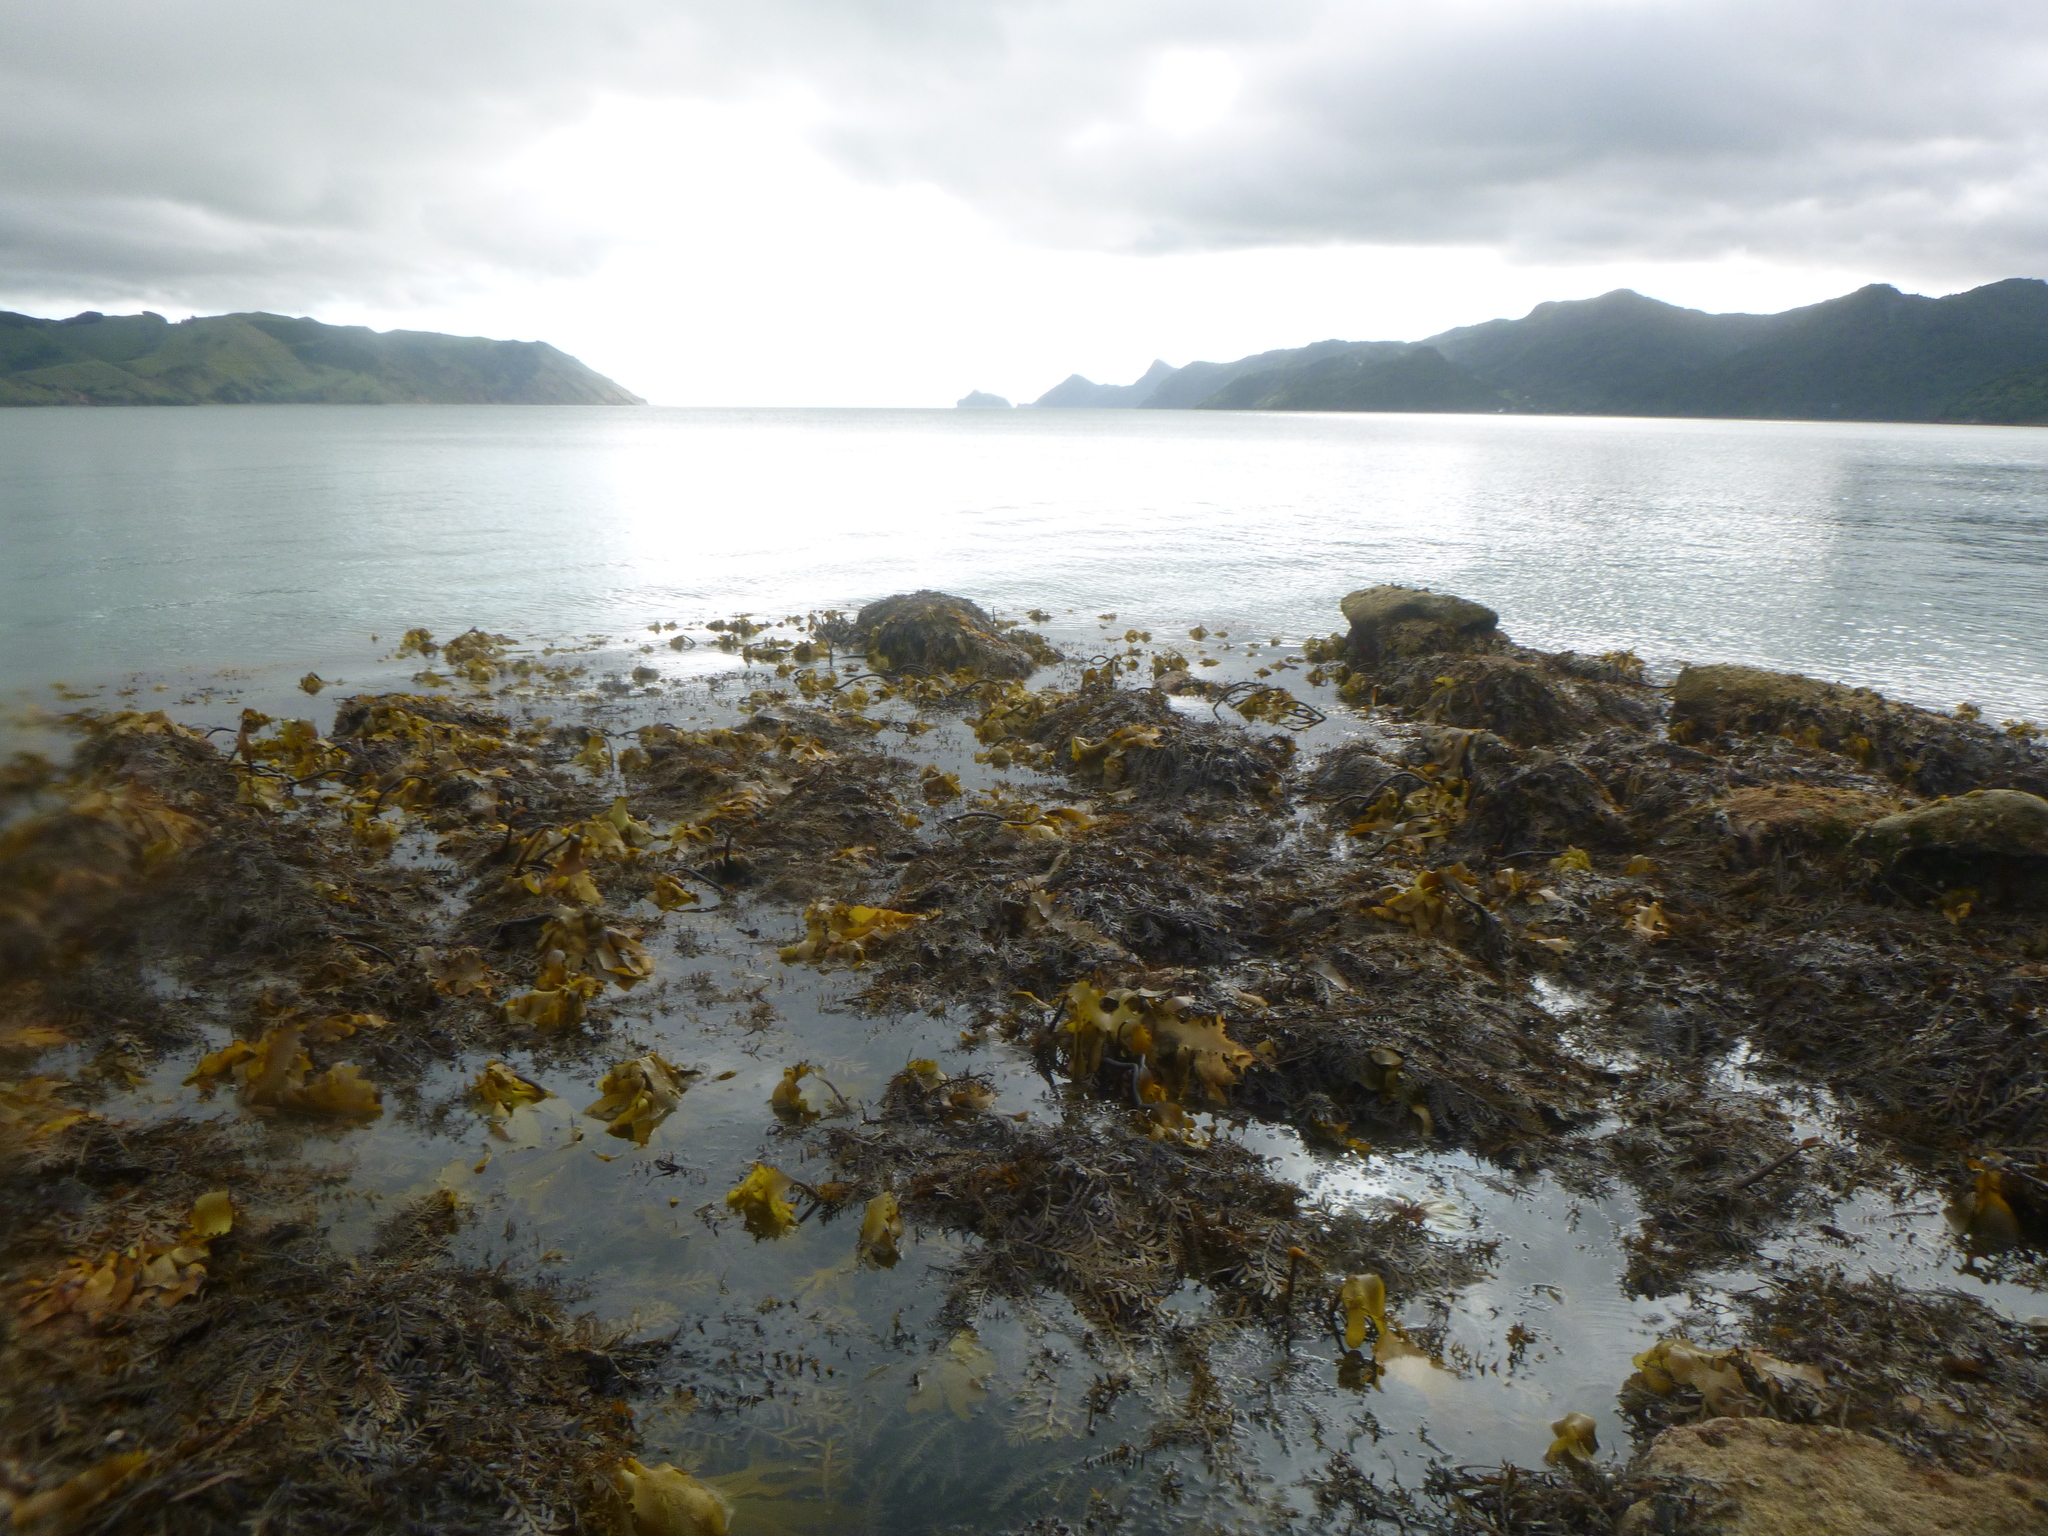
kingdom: Chromista
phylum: Ochrophyta
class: Phaeophyceae
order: Laminariales
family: Lessoniaceae
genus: Ecklonia
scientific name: Ecklonia radiata
